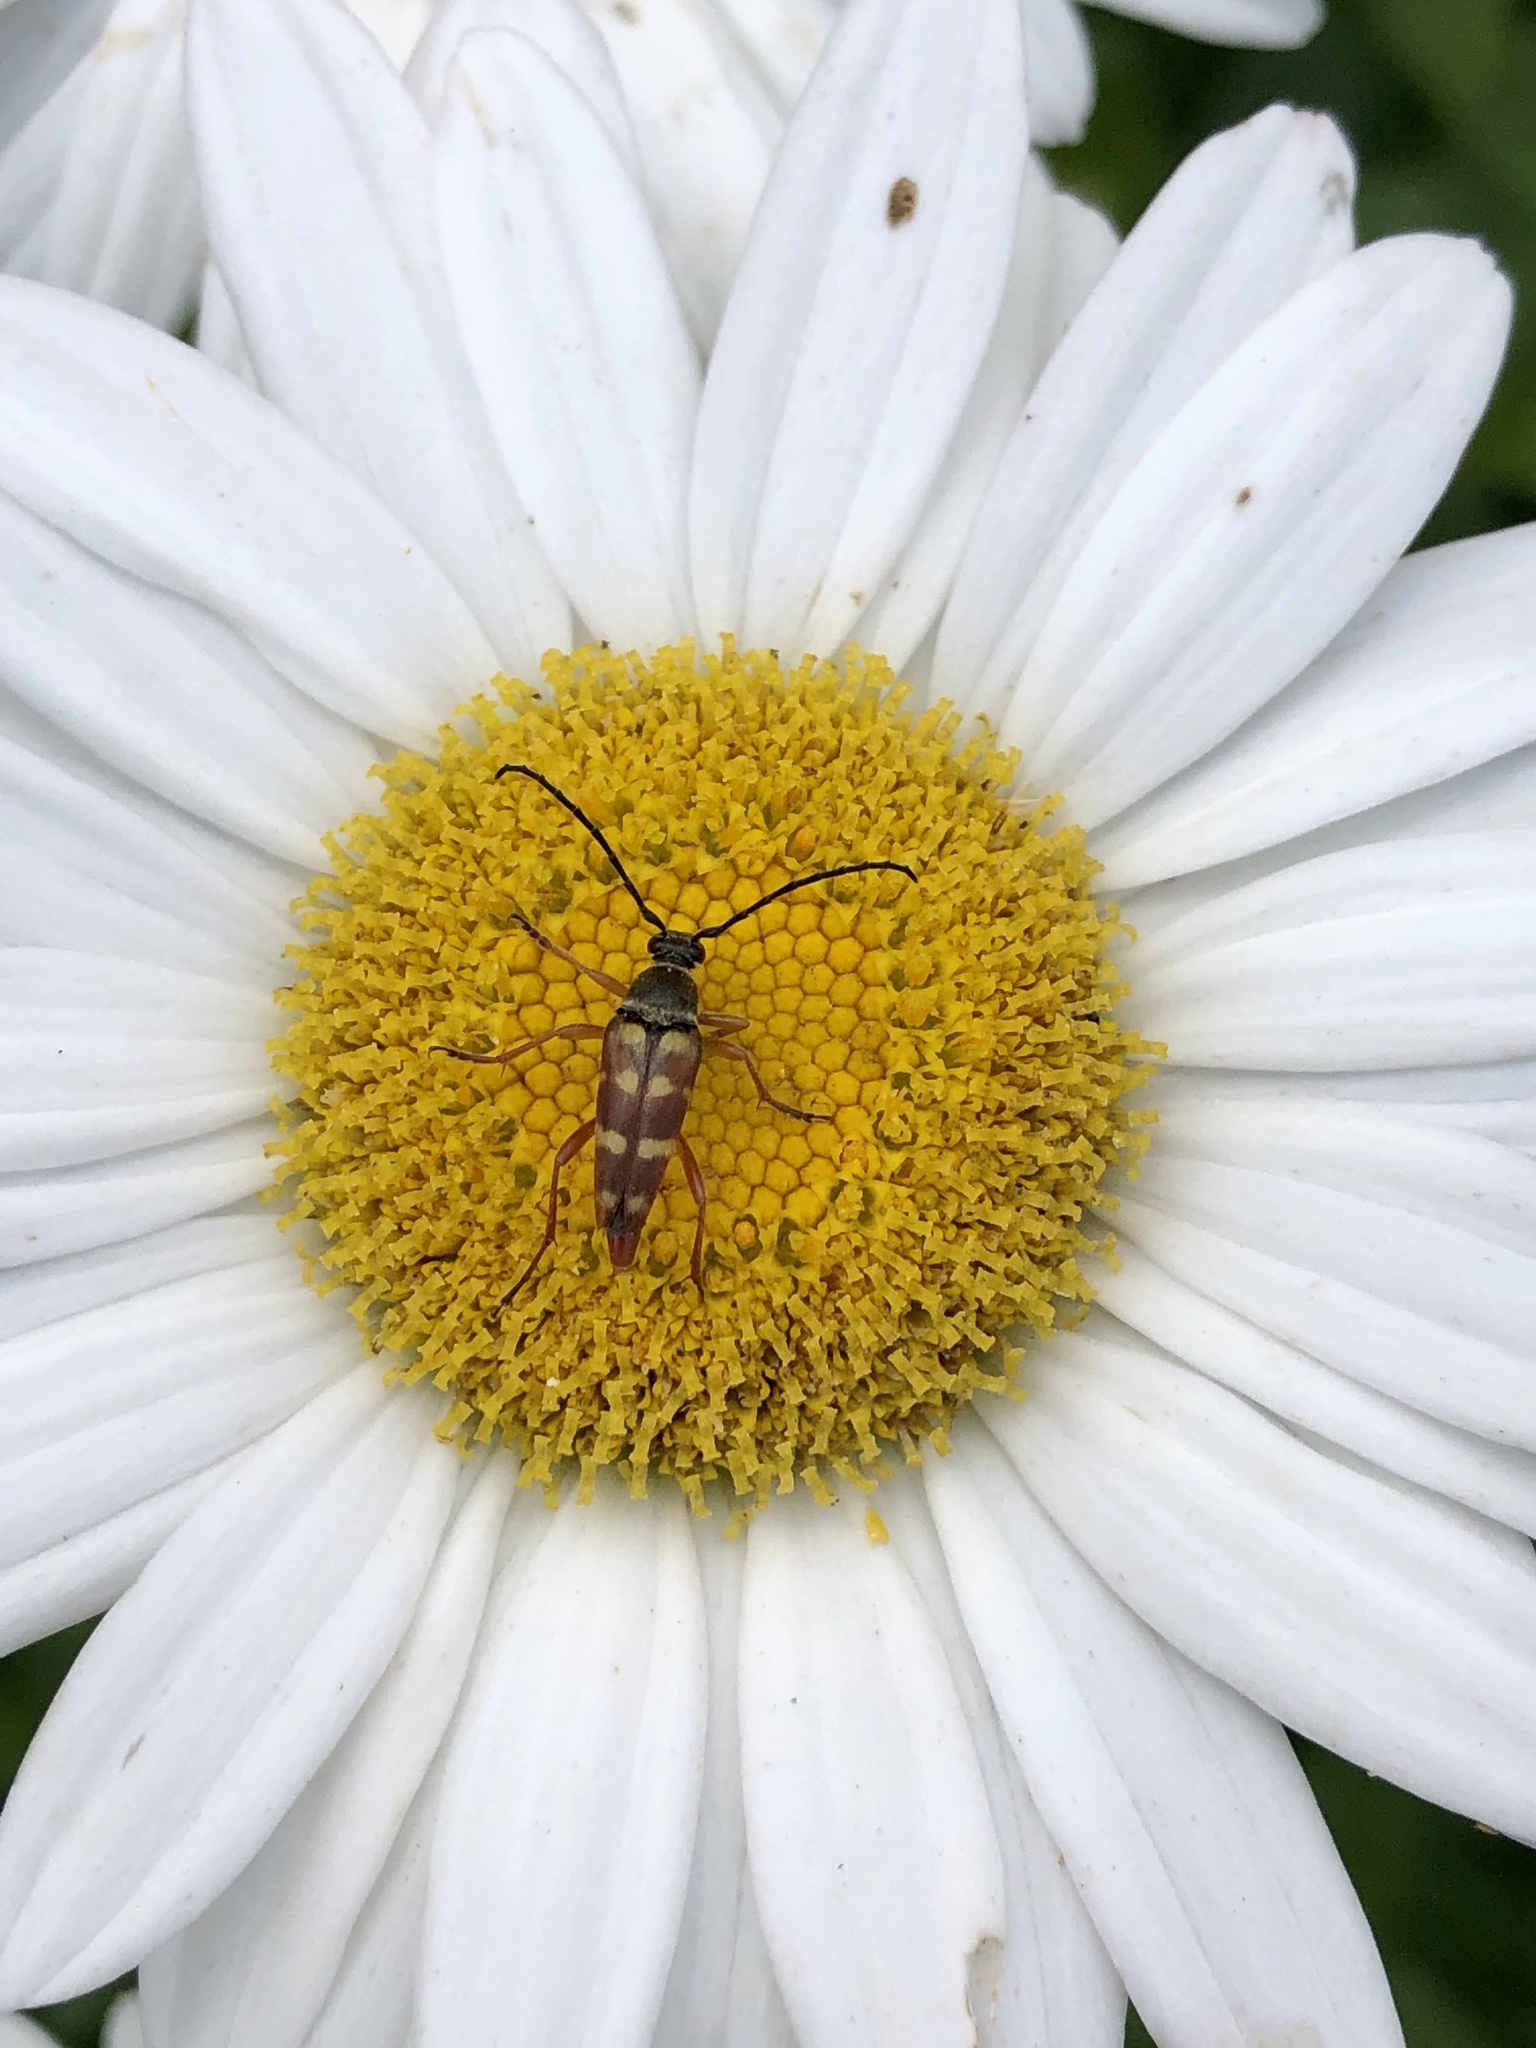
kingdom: Animalia
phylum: Arthropoda
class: Insecta
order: Coleoptera
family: Cerambycidae
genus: Typocerus
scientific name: Typocerus velutinus
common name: Banded longhorn beetle
